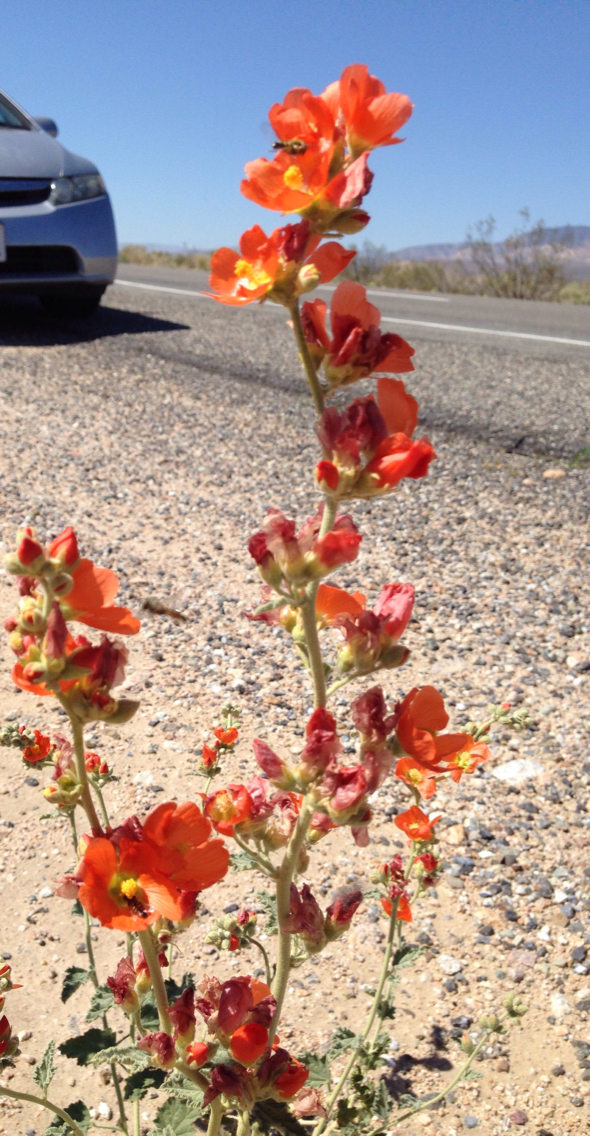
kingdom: Plantae
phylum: Tracheophyta
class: Magnoliopsida
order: Malvales
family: Malvaceae
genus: Sphaeralcea
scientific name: Sphaeralcea ambigua
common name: Apricot globe-mallow
